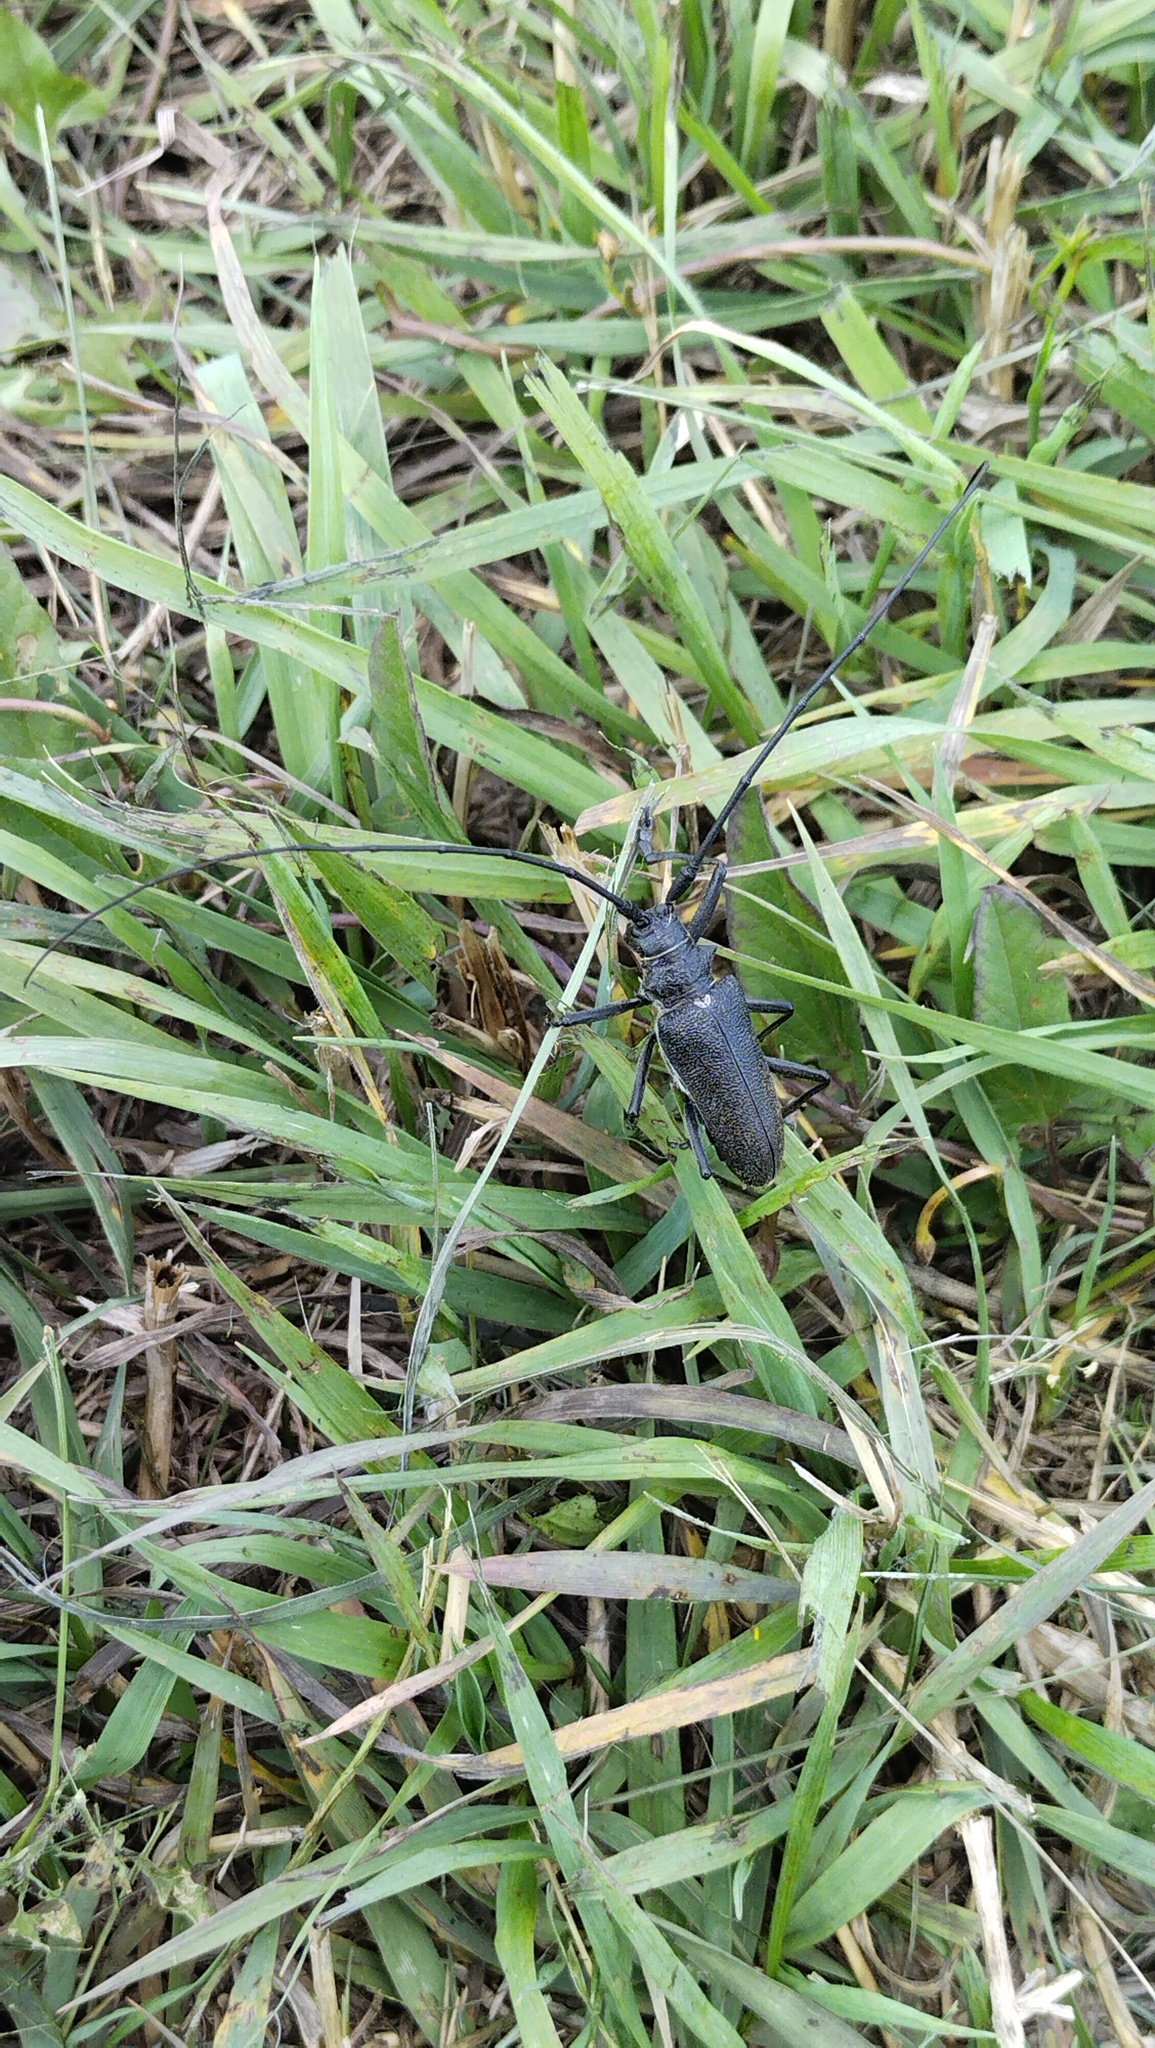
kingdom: Animalia
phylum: Arthropoda
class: Insecta
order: Coleoptera
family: Cerambycidae
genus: Monochamus
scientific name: Monochamus sutor
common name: Pine sawyer
